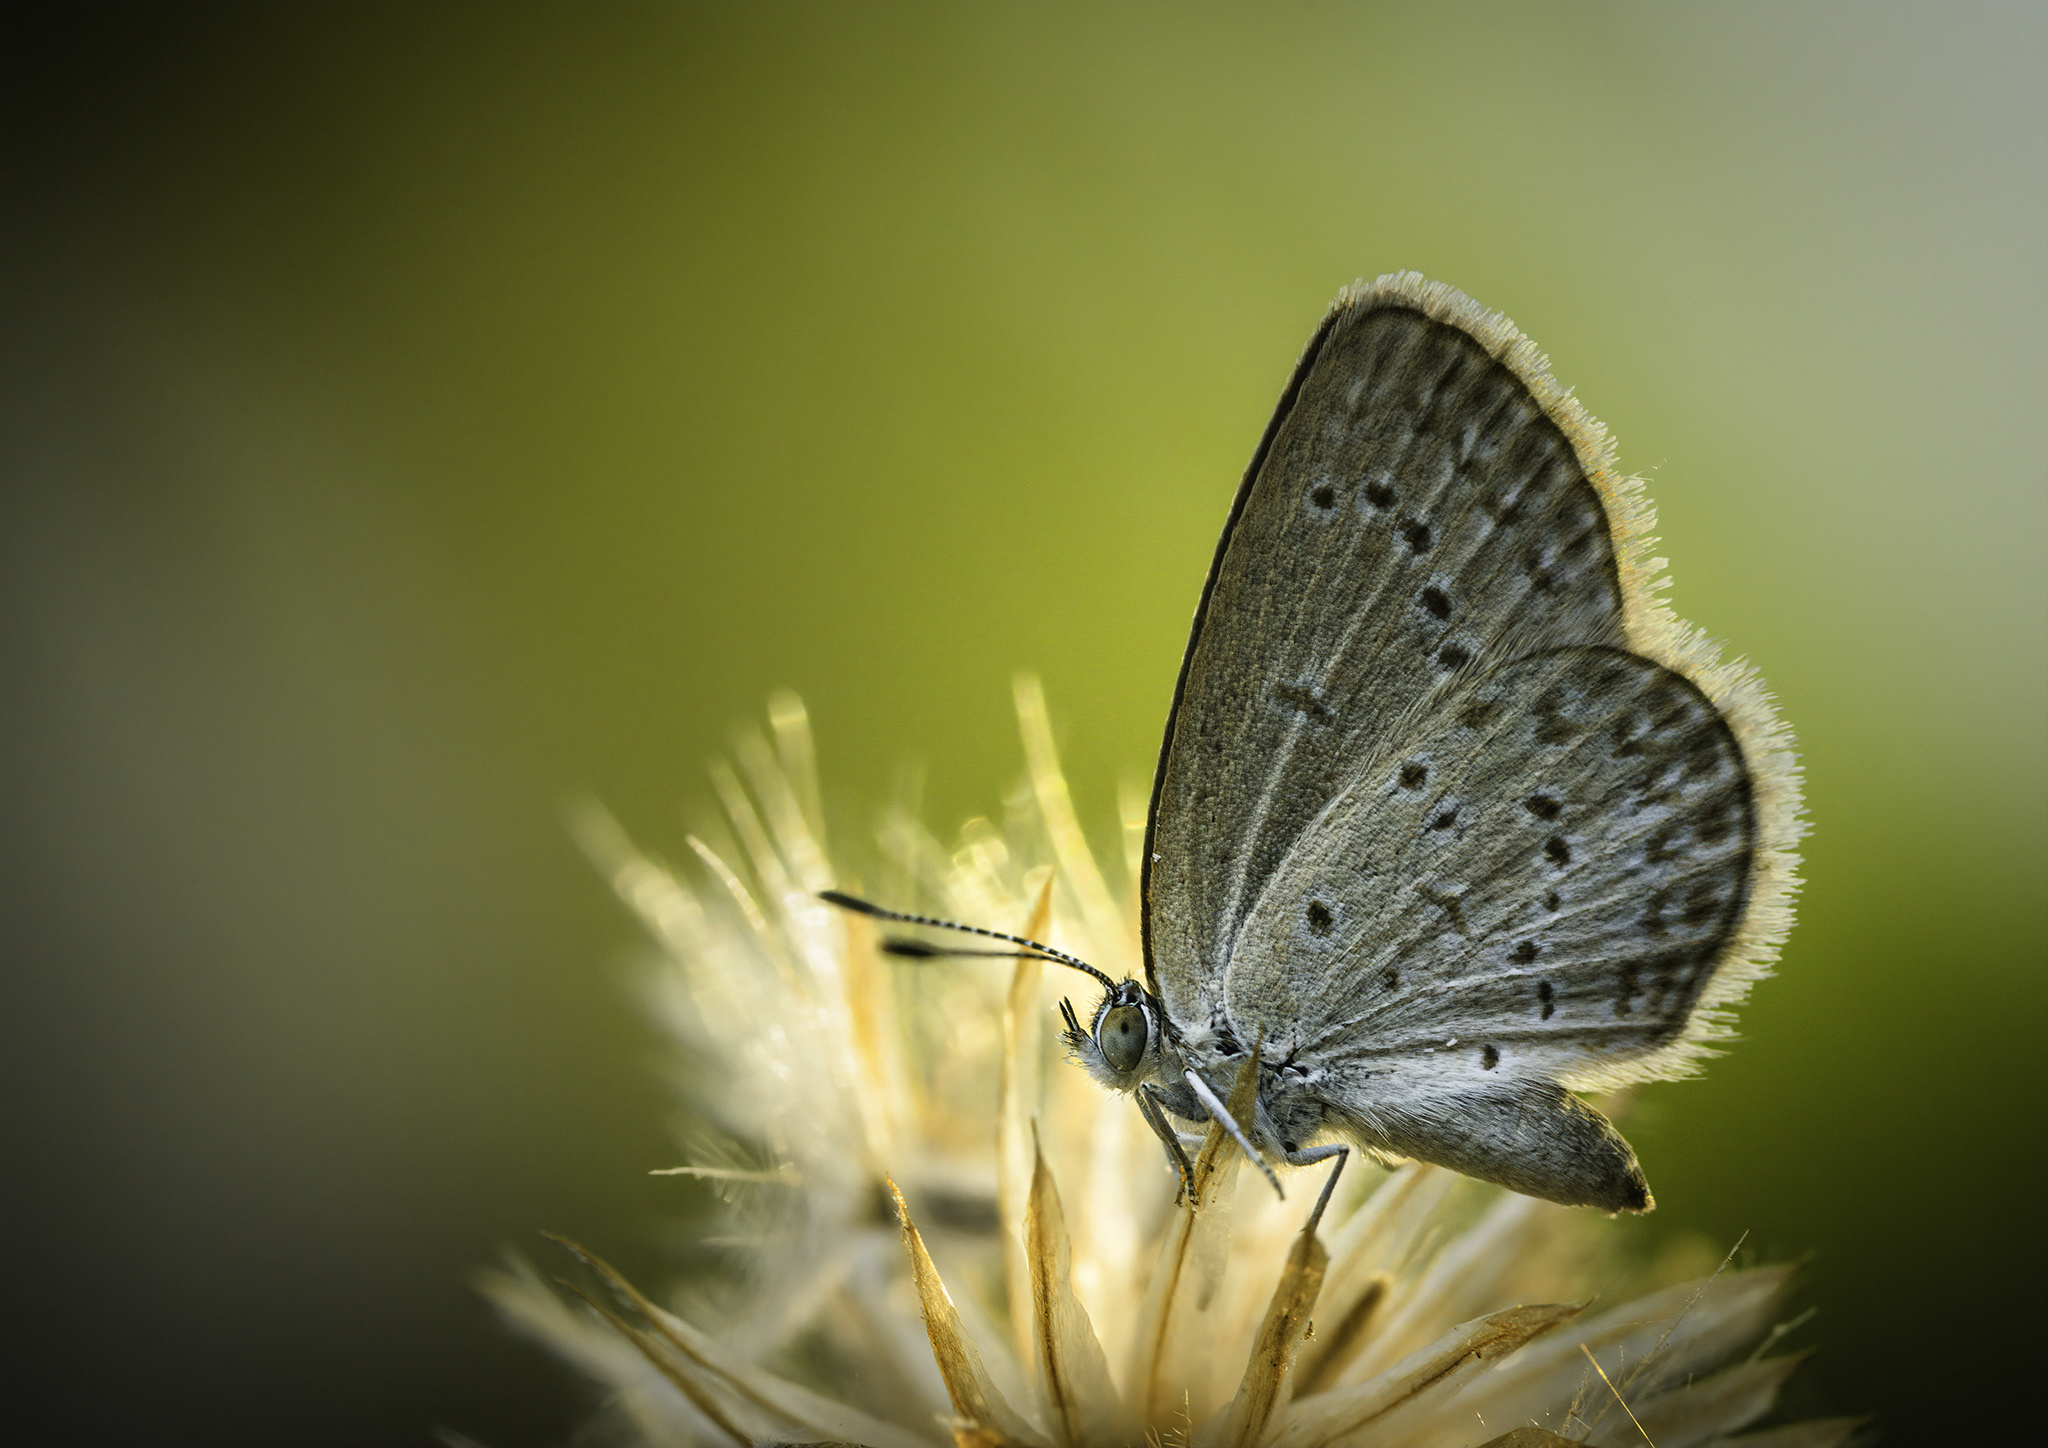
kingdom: Animalia
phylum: Arthropoda
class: Insecta
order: Lepidoptera
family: Lycaenidae
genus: Zizina
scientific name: Zizina otis
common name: Lesser grass blue
